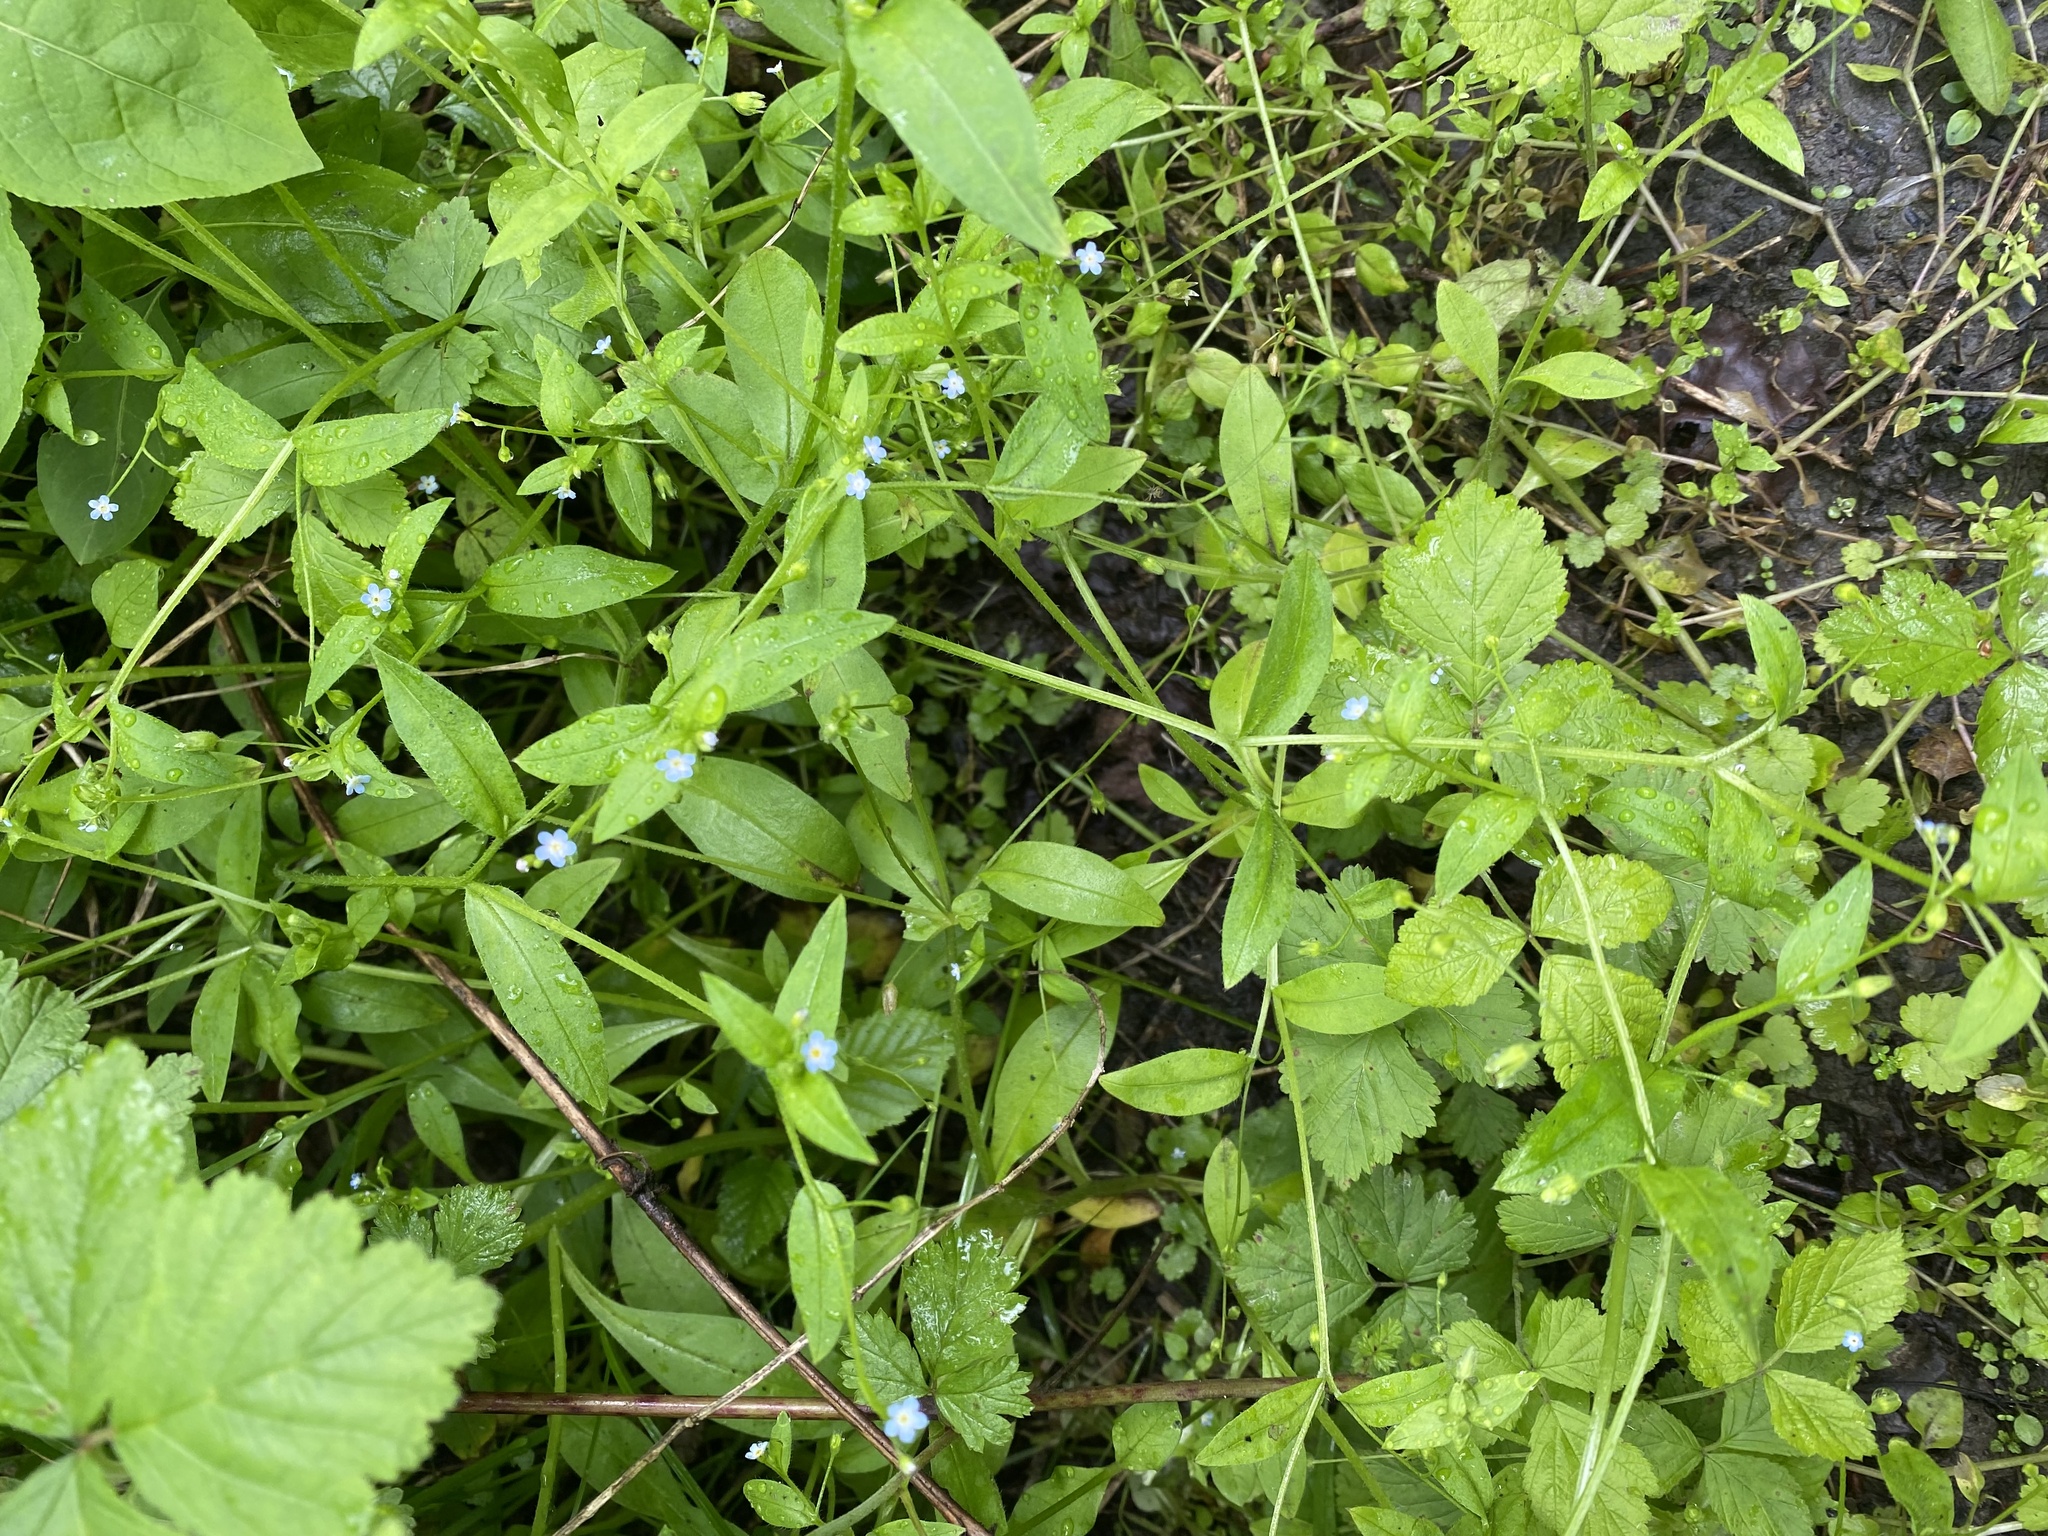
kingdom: Plantae
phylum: Tracheophyta
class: Magnoliopsida
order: Boraginales
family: Boraginaceae
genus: Myosotis
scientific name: Myosotis sparsiflora
